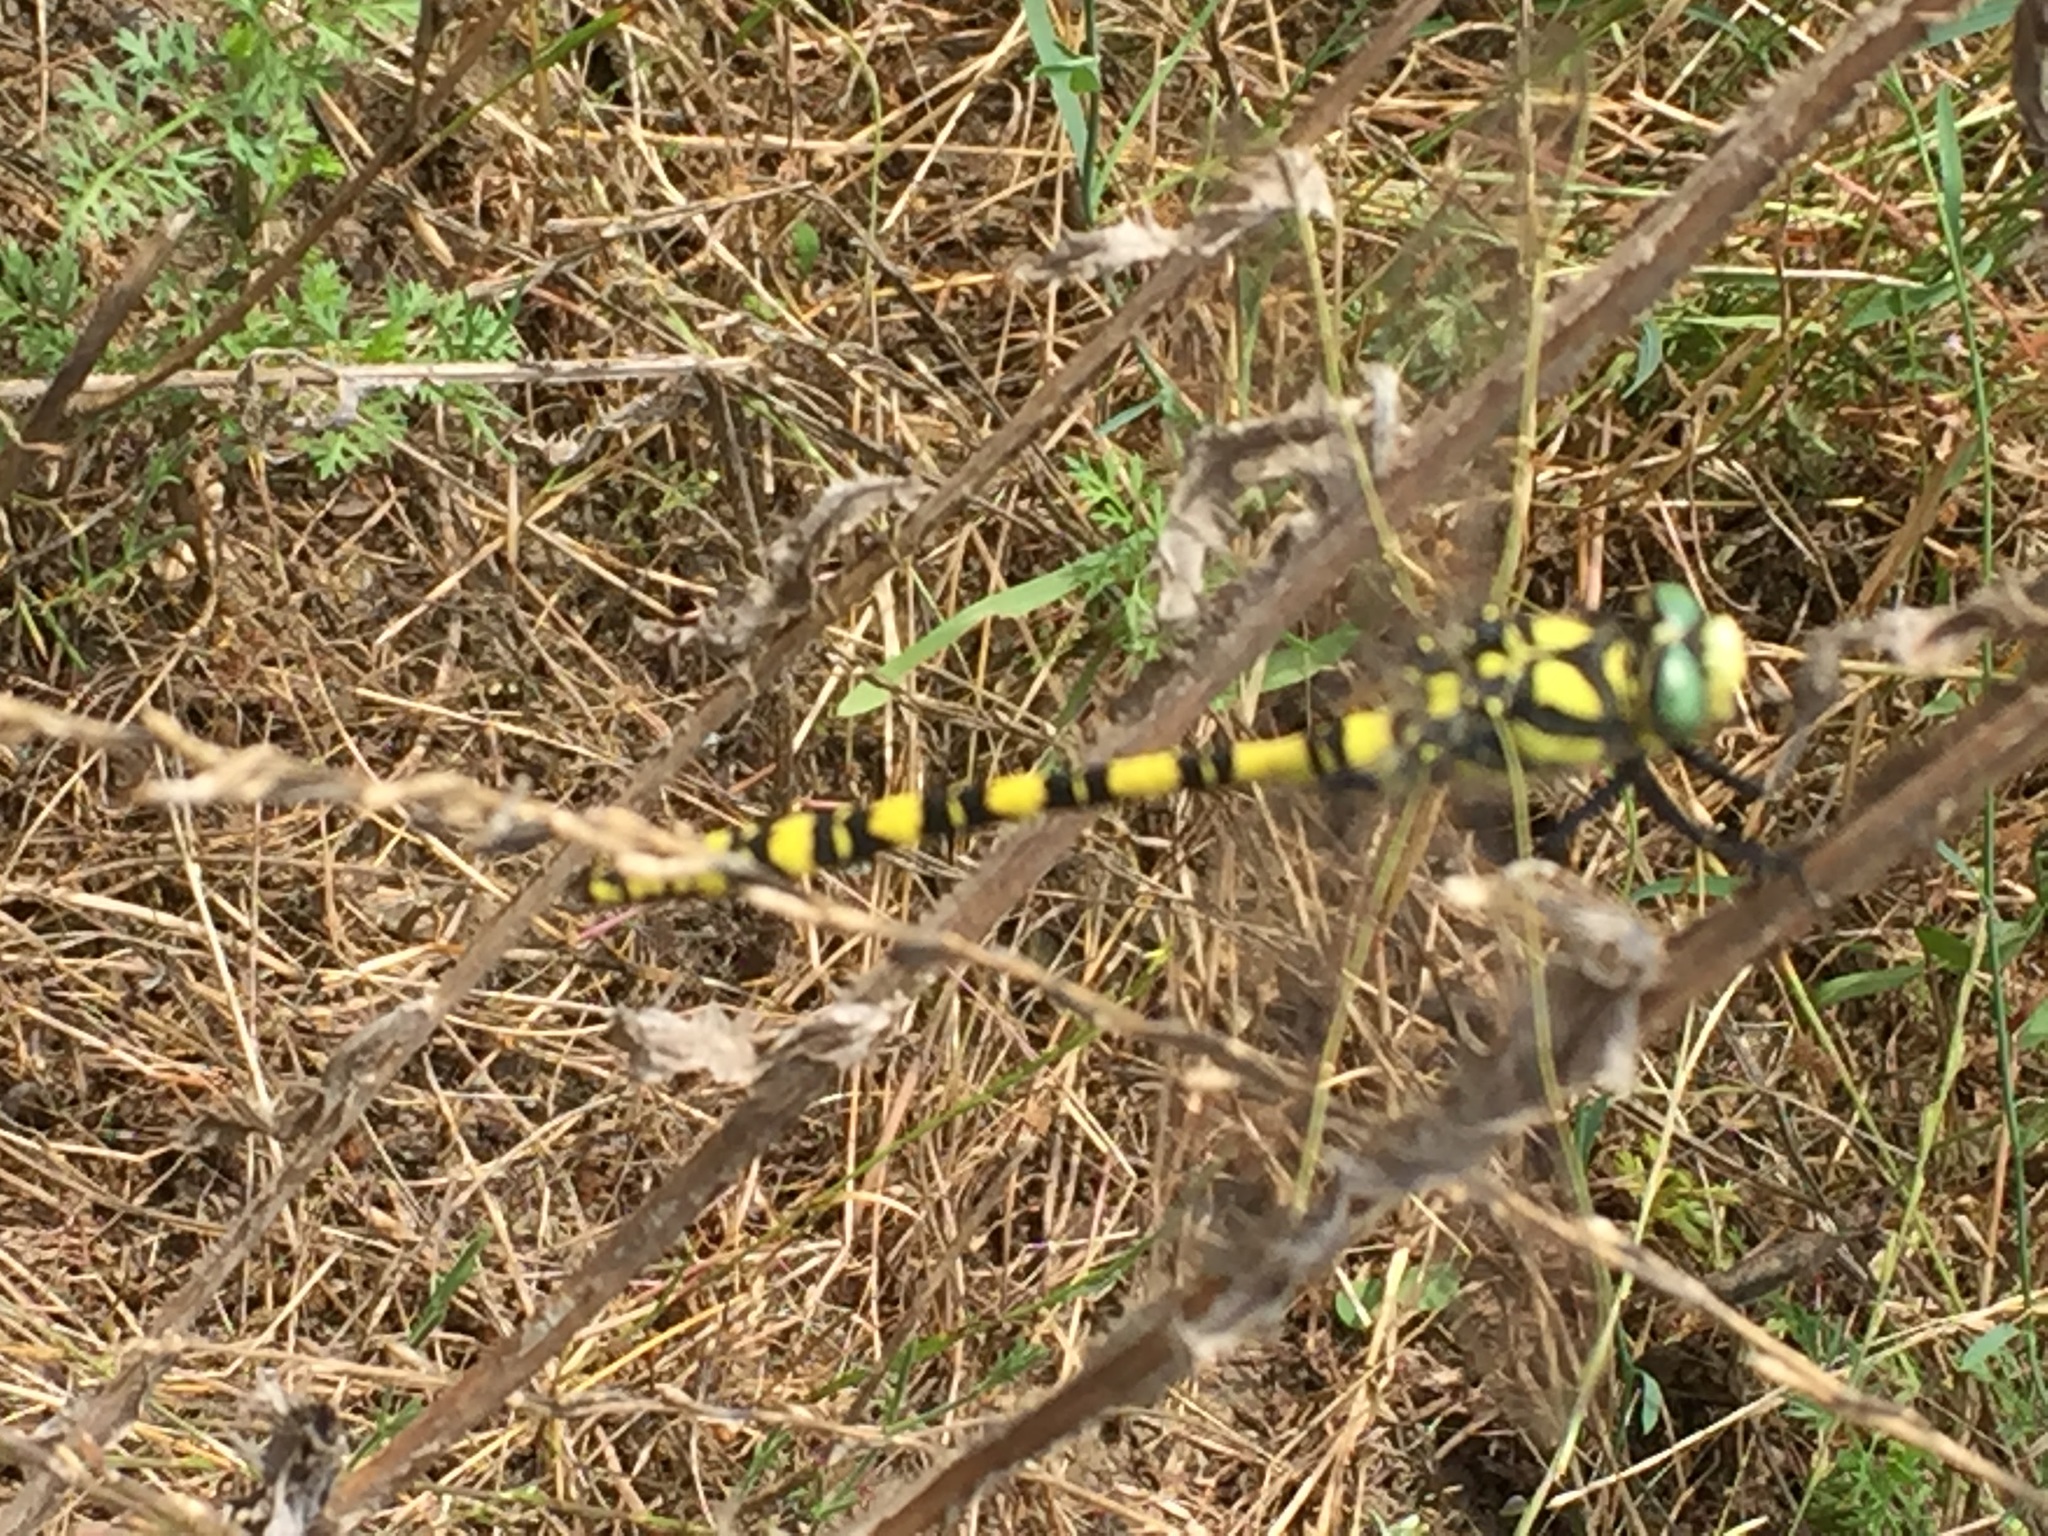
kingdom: Animalia
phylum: Arthropoda
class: Insecta
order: Odonata
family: Cordulegastridae
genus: Cordulegaster
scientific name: Cordulegaster charpentieri
